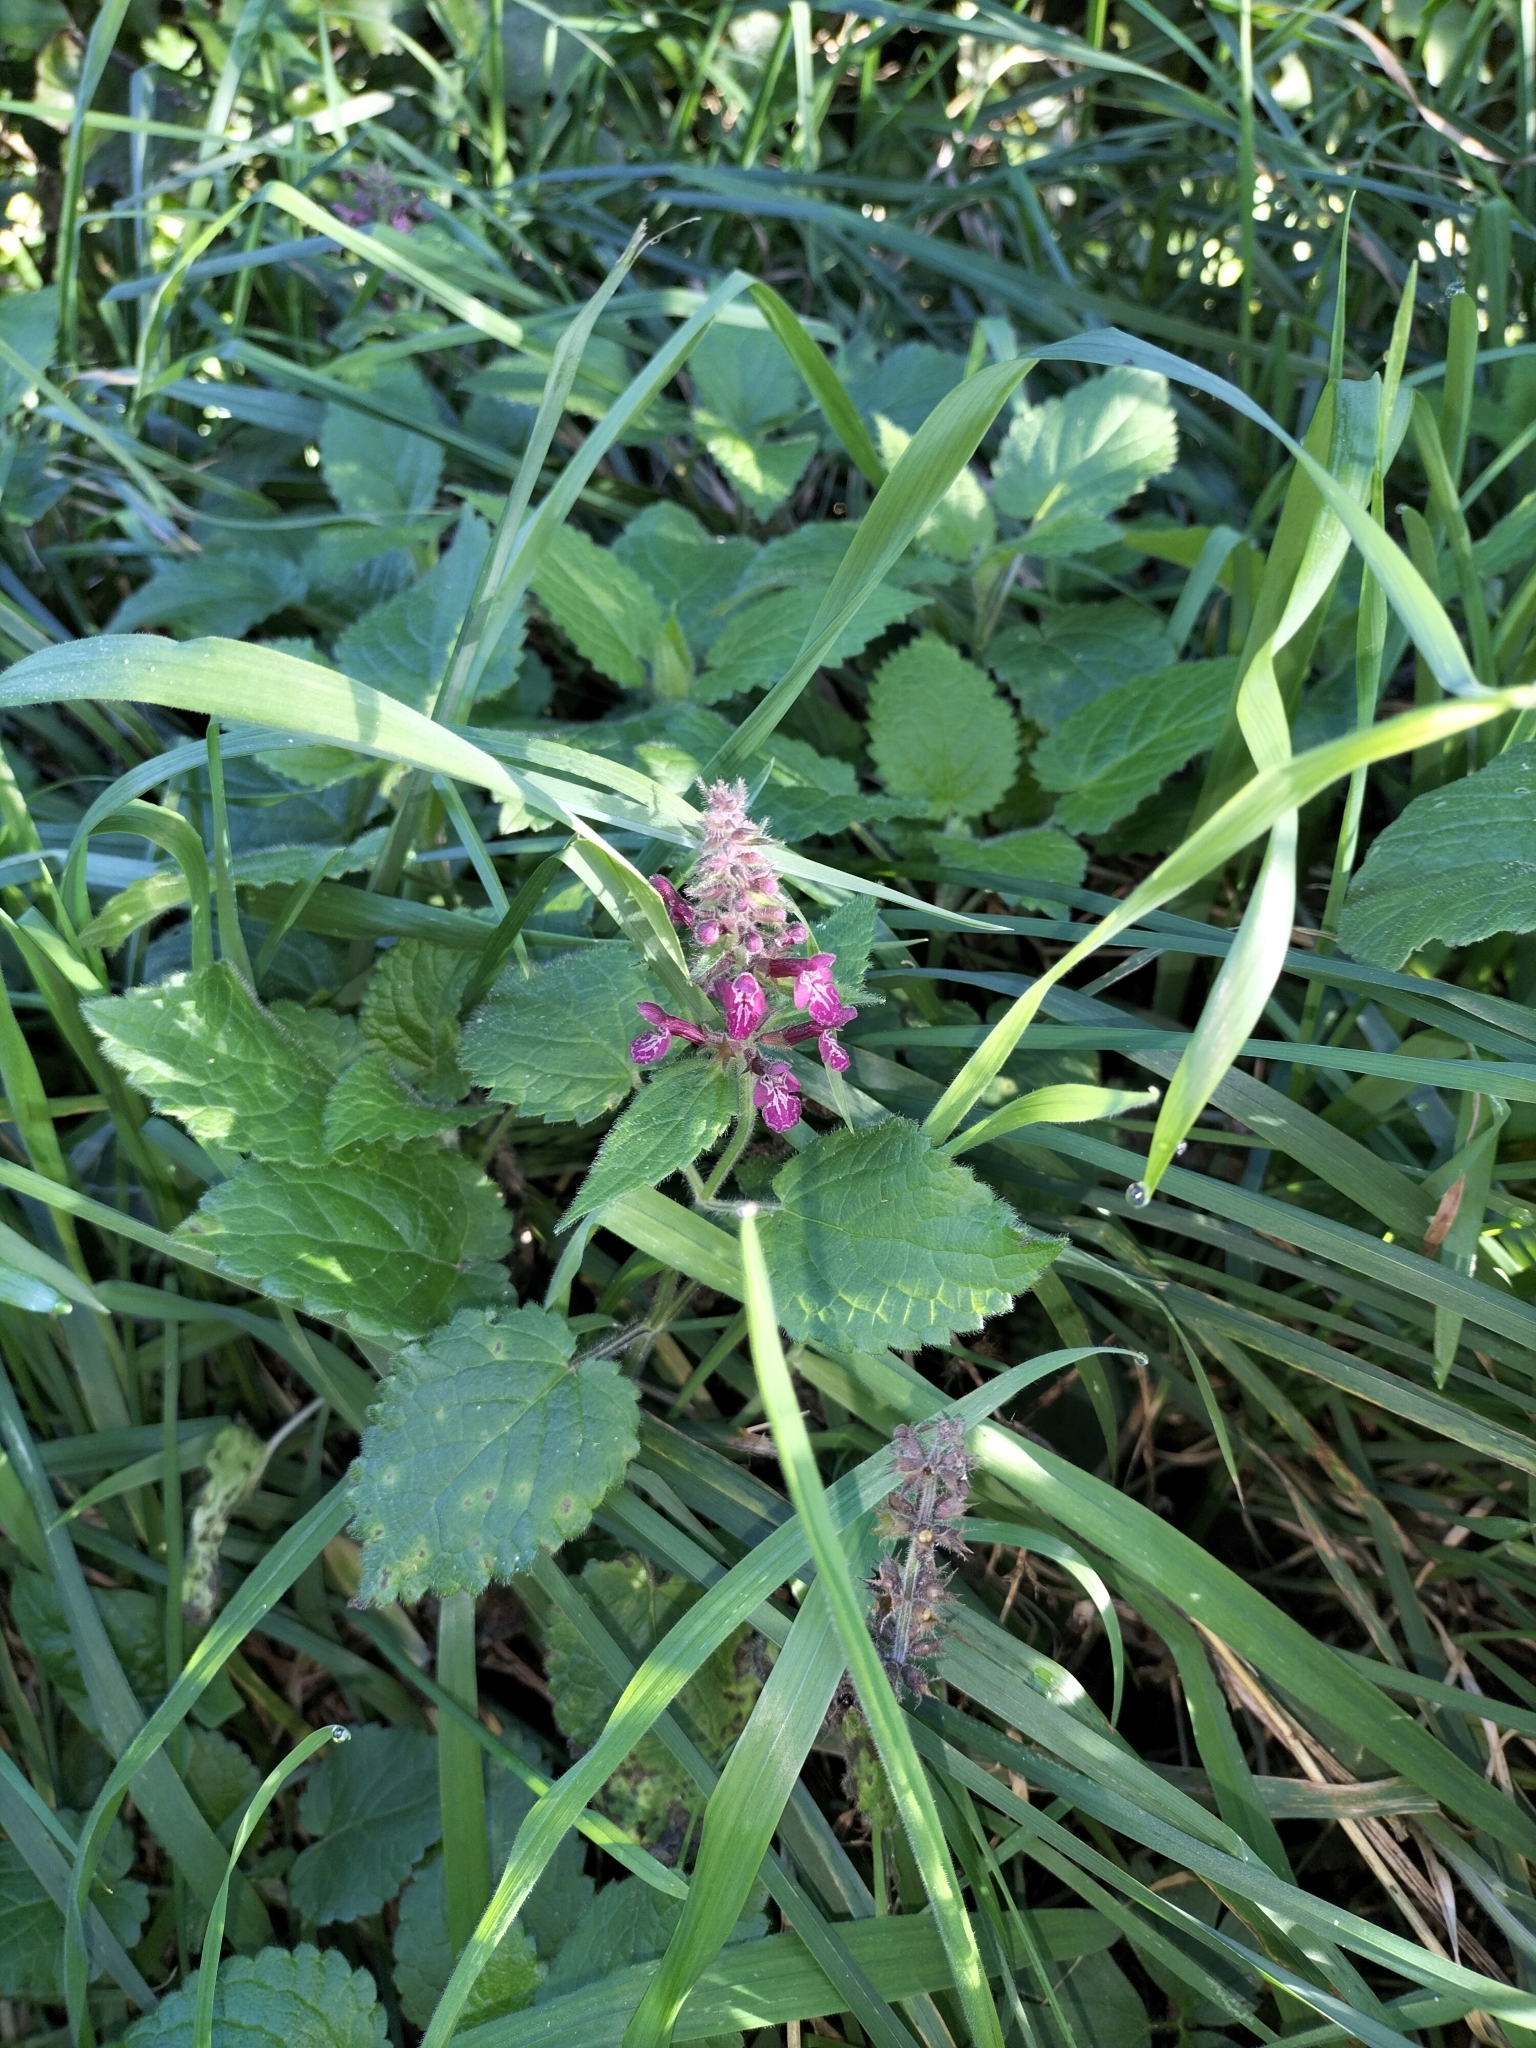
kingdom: Plantae
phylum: Tracheophyta
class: Magnoliopsida
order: Lamiales
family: Lamiaceae
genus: Stachys
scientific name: Stachys sylvatica
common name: Hedge woundwort
